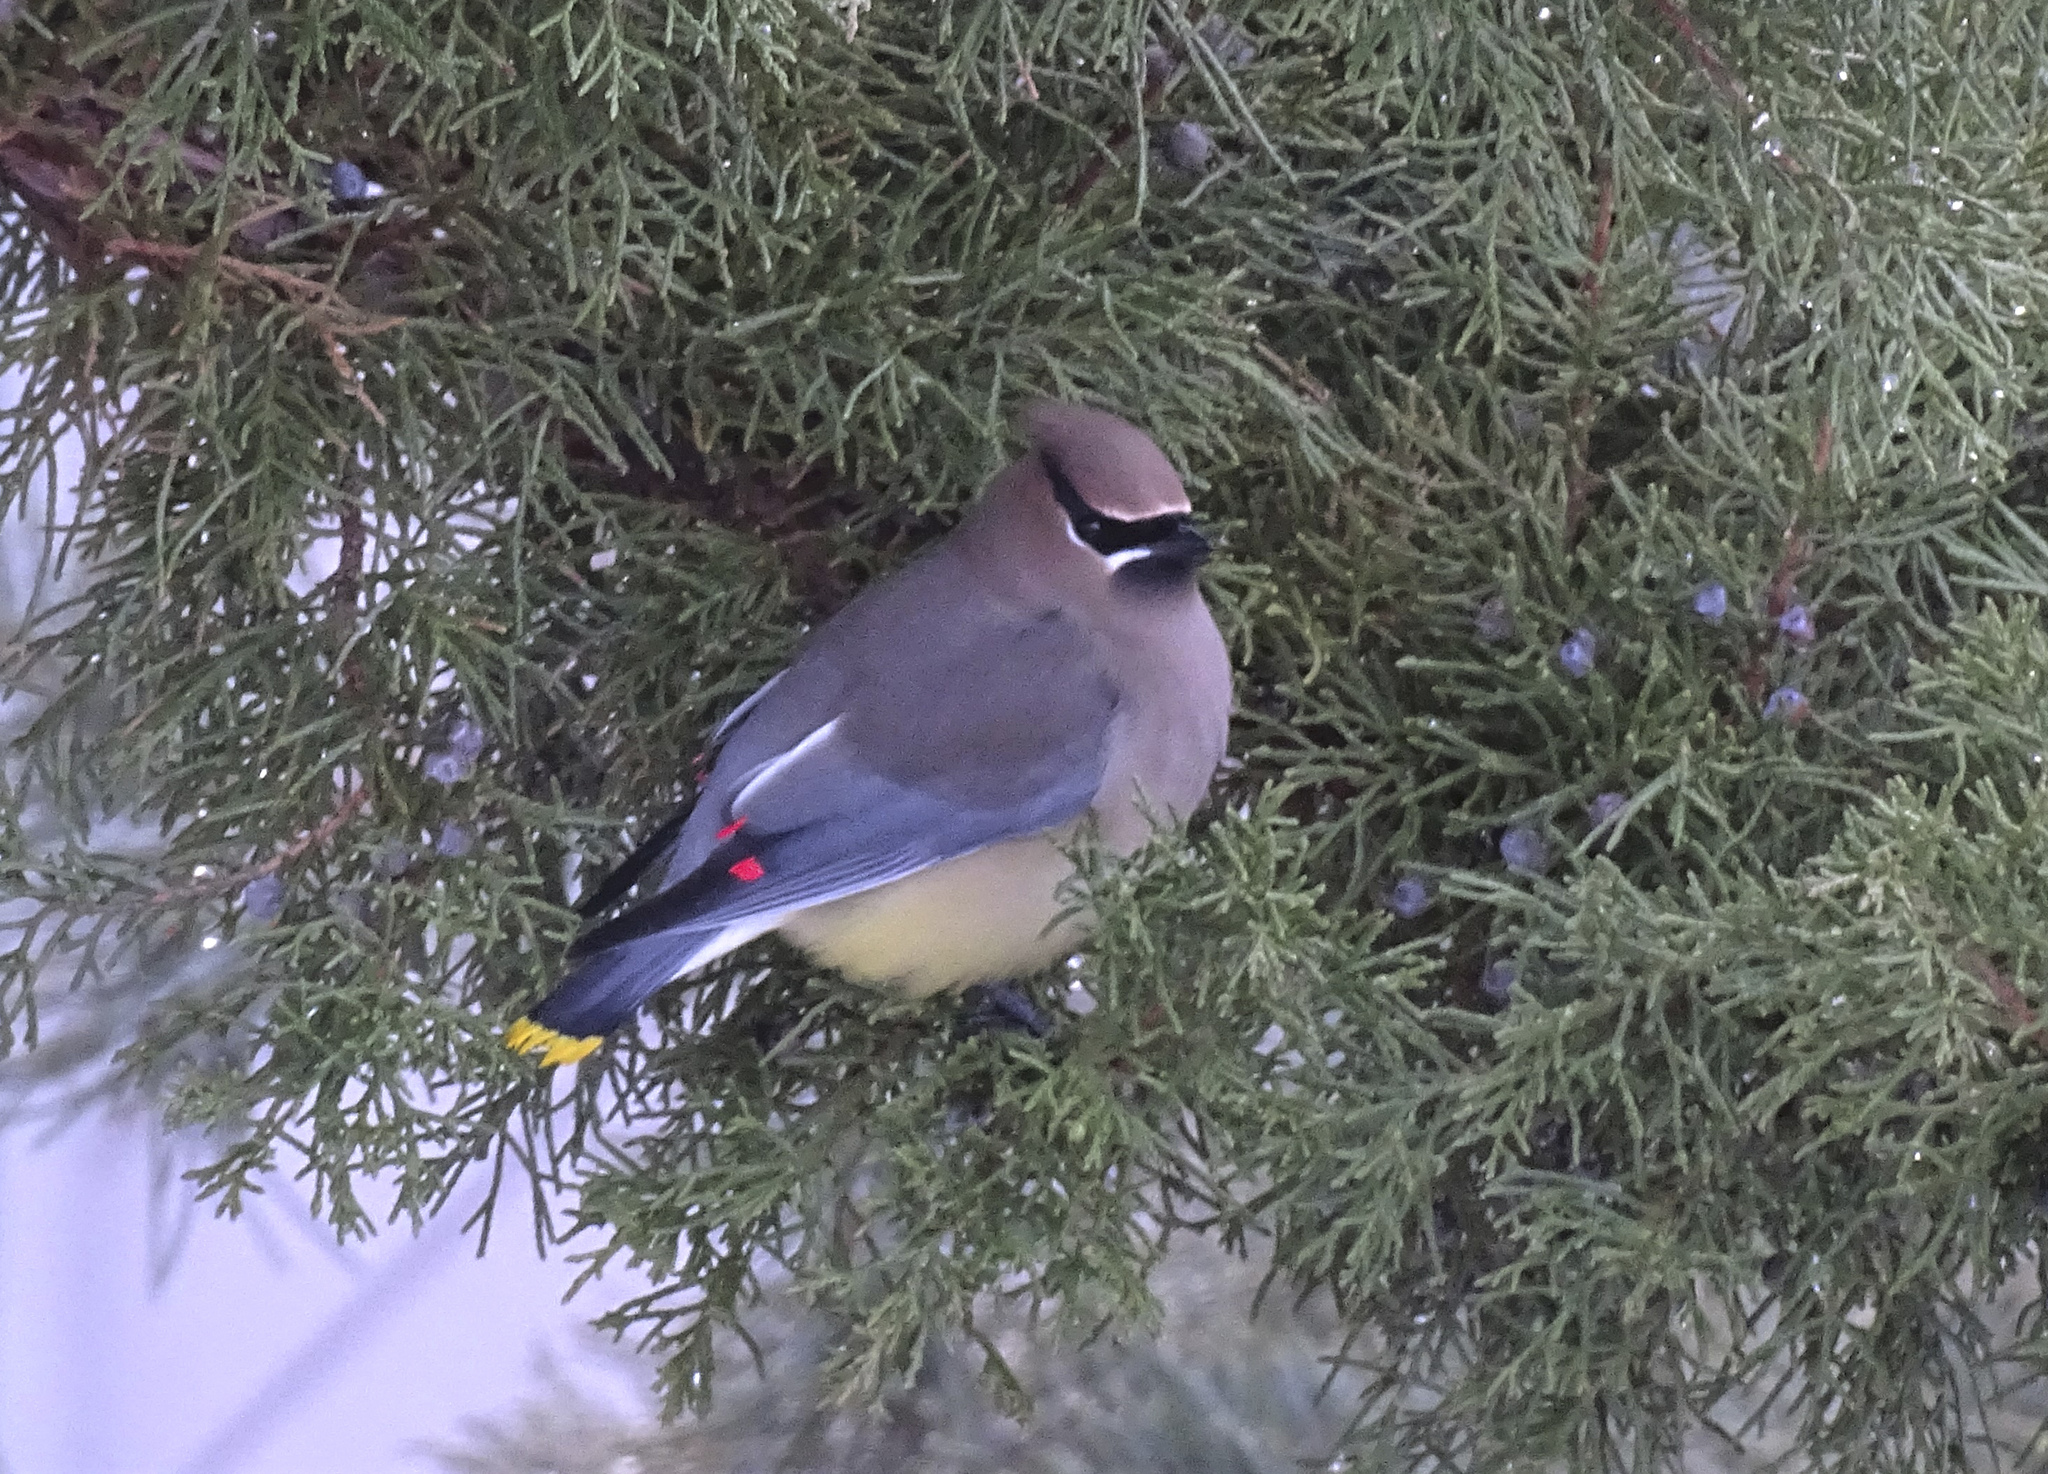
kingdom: Animalia
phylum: Chordata
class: Aves
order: Passeriformes
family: Bombycillidae
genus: Bombycilla
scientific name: Bombycilla cedrorum
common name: Cedar waxwing
